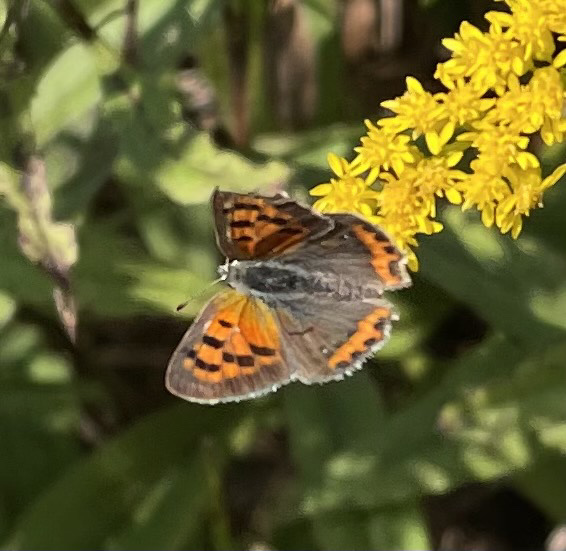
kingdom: Animalia
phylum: Arthropoda
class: Insecta
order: Lepidoptera
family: Lycaenidae
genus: Lycaena
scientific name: Lycaena hypophlaeas
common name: American copper
